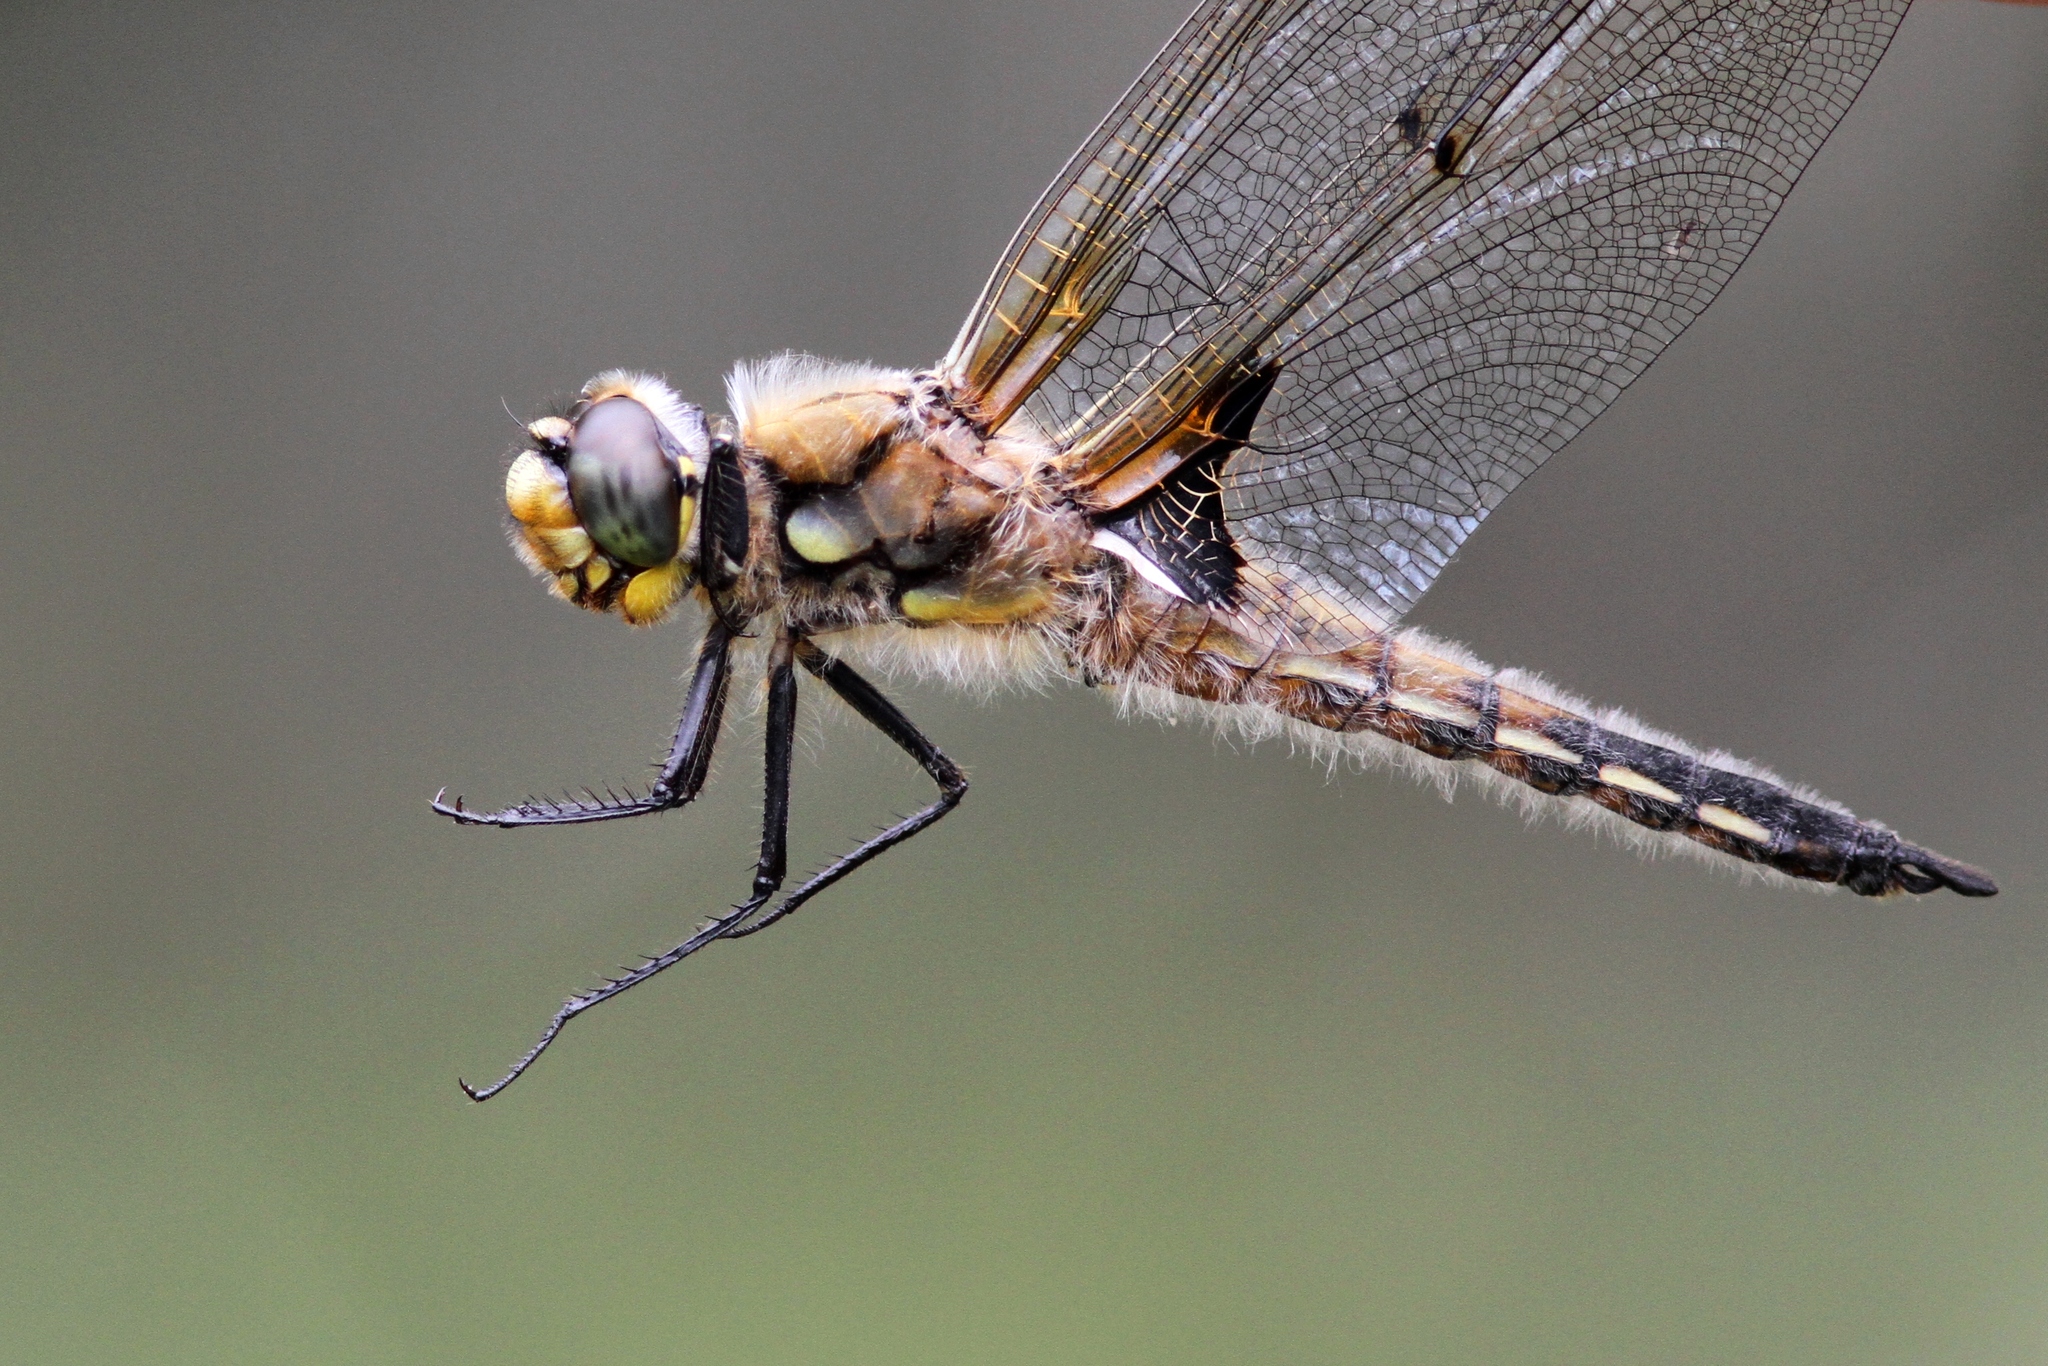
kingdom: Animalia
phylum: Arthropoda
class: Insecta
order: Odonata
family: Libellulidae
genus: Libellula
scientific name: Libellula quadrimaculata
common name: Four-spotted chaser
